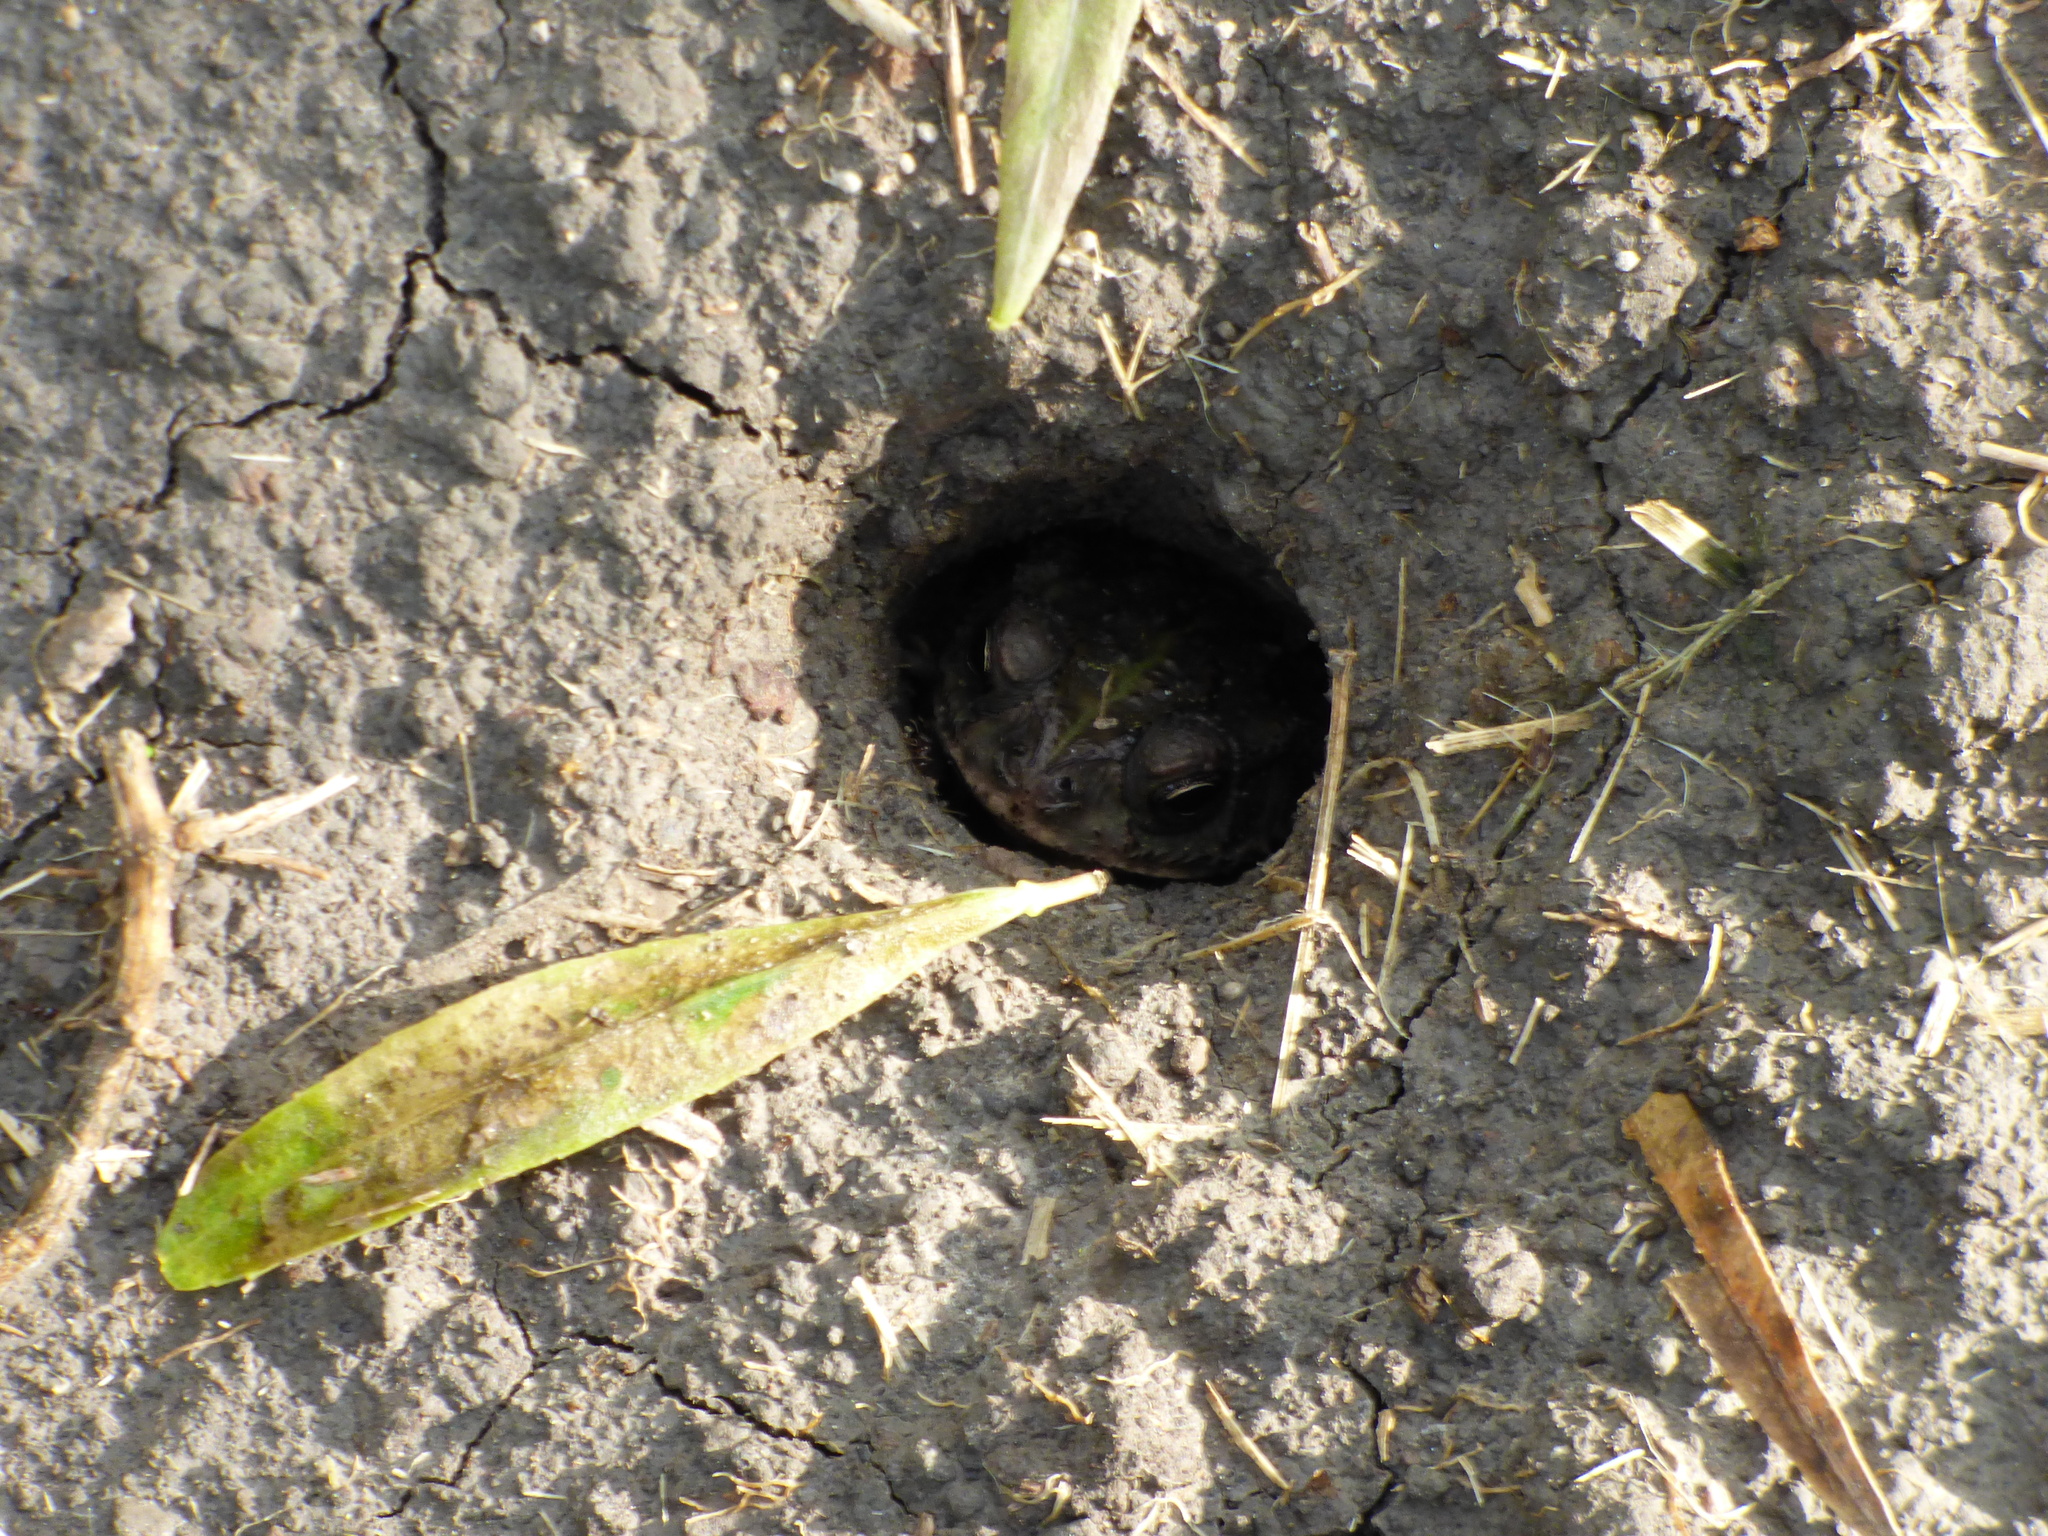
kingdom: Animalia
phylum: Chordata
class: Amphibia
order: Anura
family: Bufonidae
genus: Rhinella
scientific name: Rhinella dorbignyi
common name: D´orbigny’s toad
